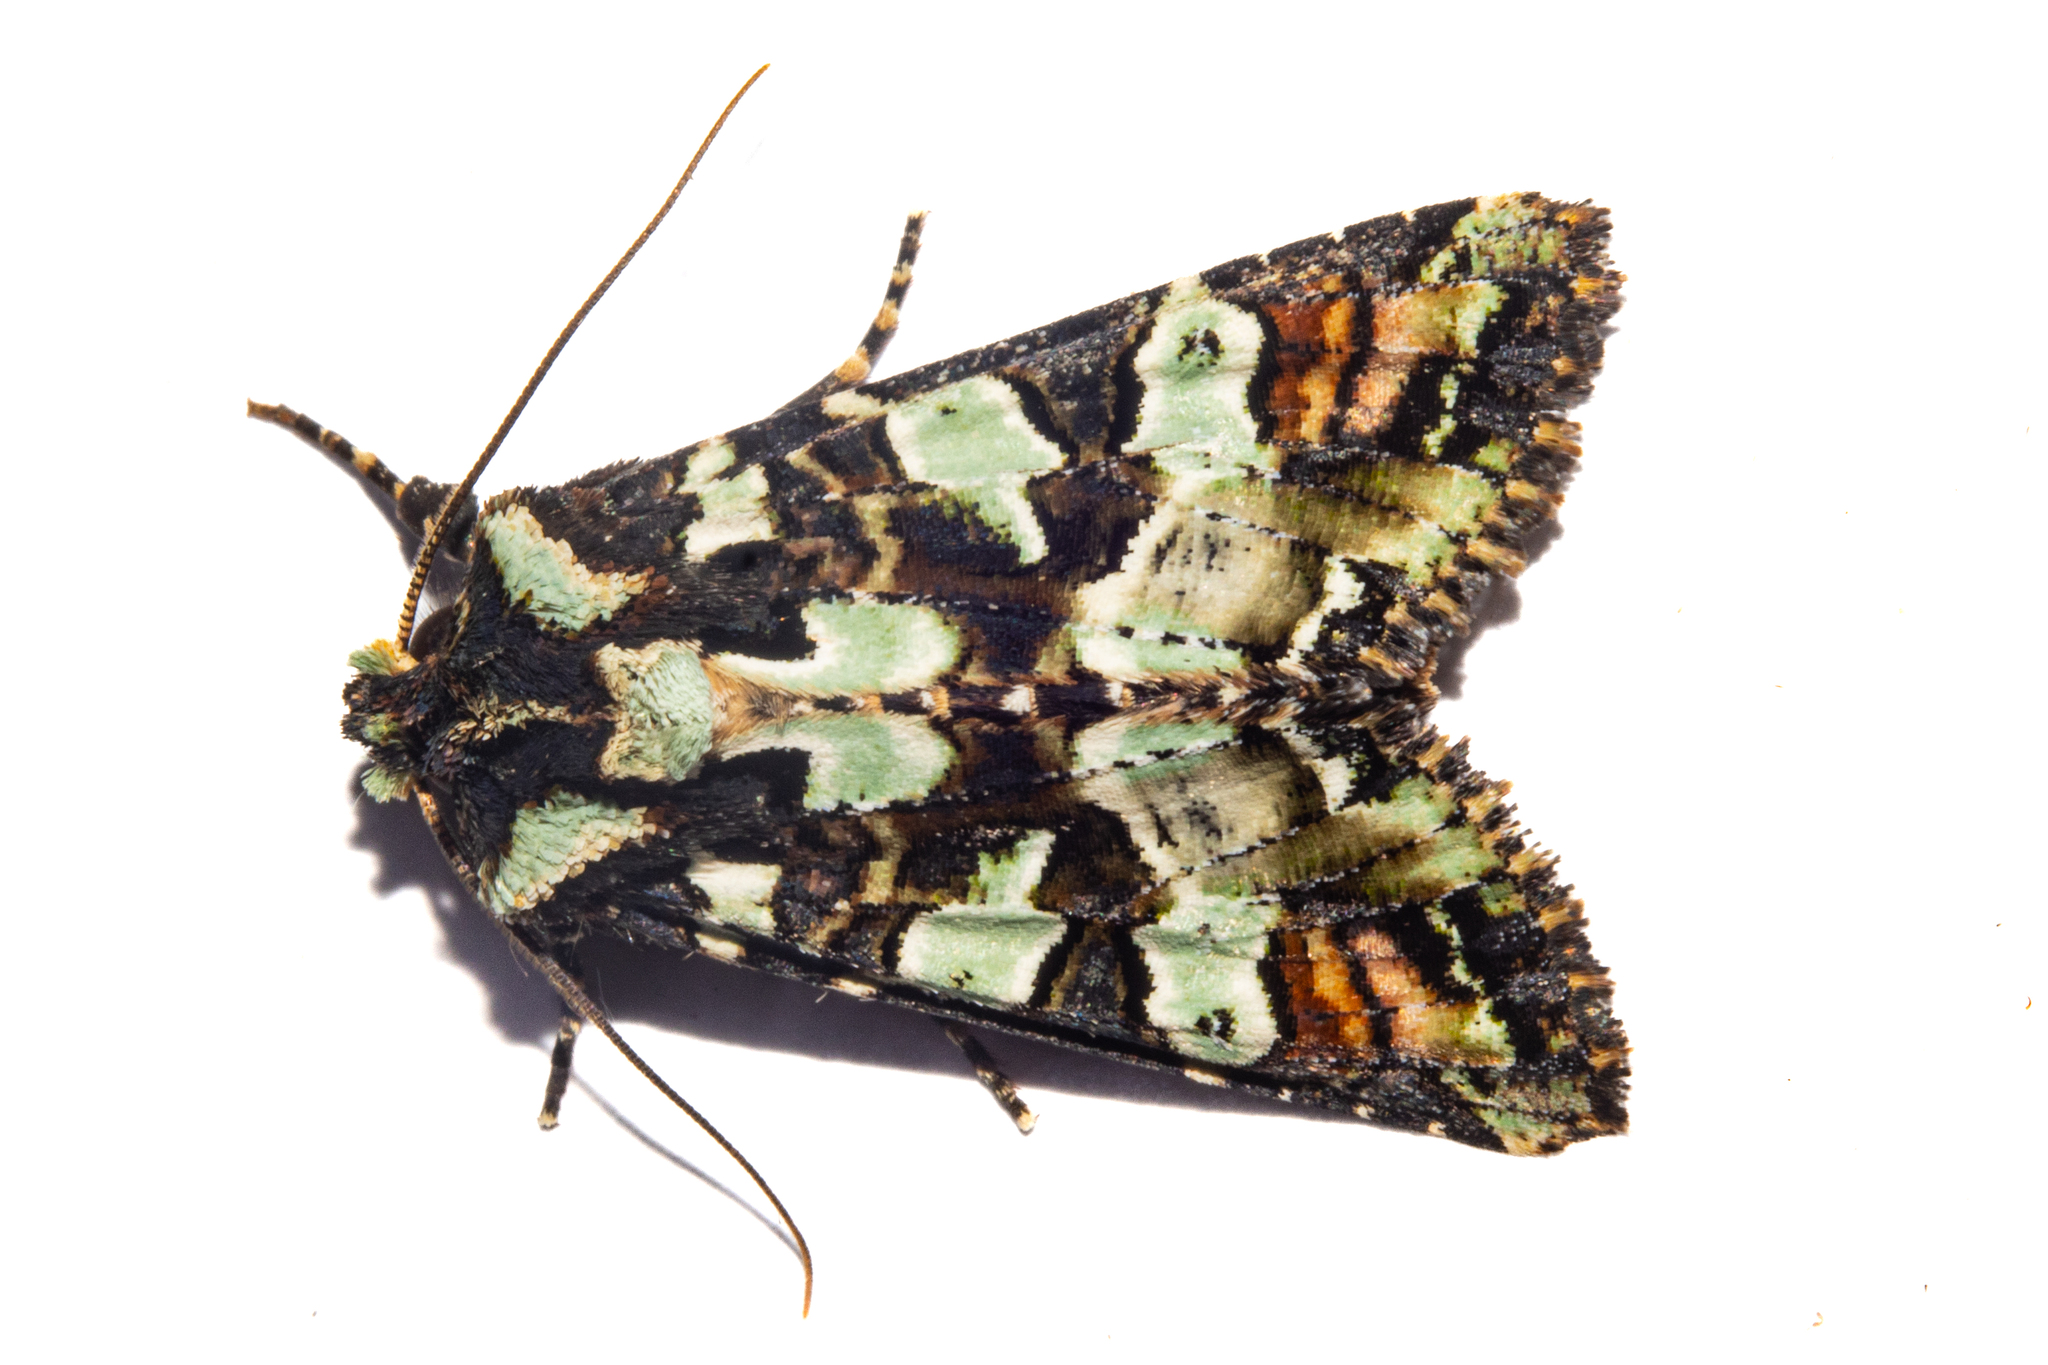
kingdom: Animalia
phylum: Arthropoda
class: Insecta
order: Lepidoptera
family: Noctuidae
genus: Meterana
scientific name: Meterana pauca
